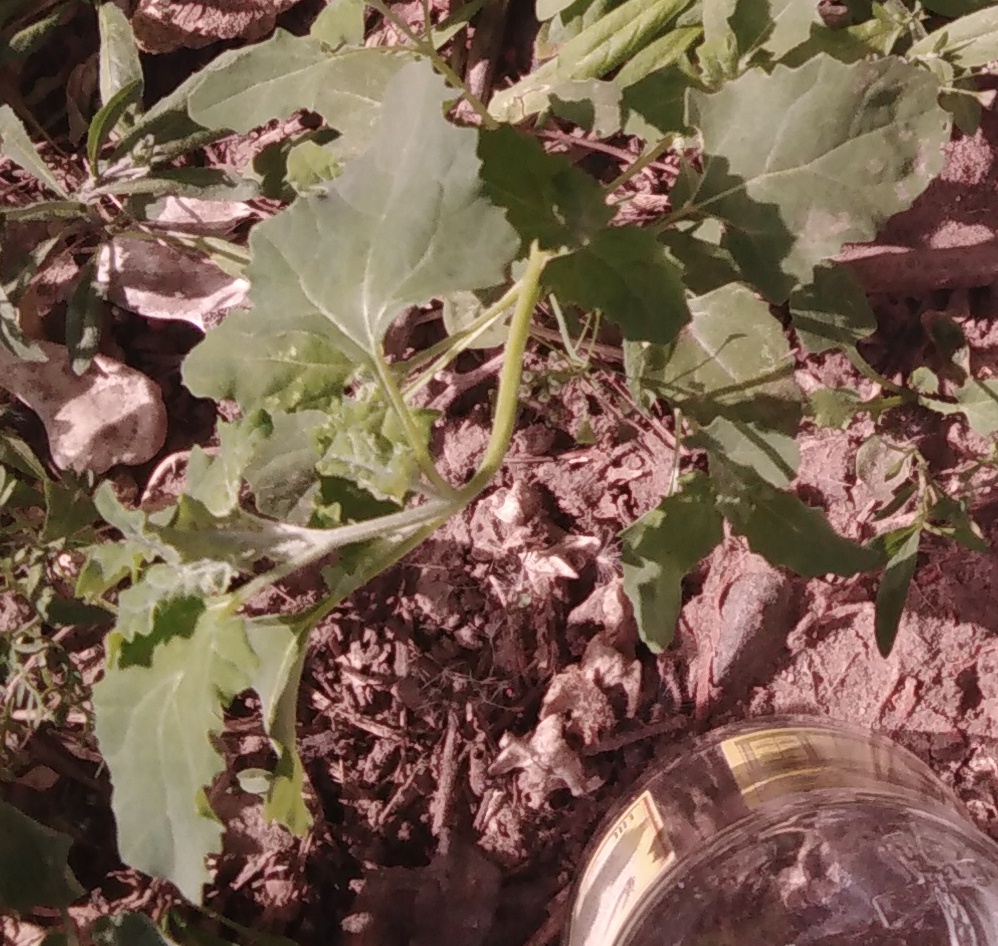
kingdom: Plantae
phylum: Tracheophyta
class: Magnoliopsida
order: Caryophyllales
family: Amaranthaceae
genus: Chenopodium
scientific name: Chenopodium album
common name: Fat-hen
